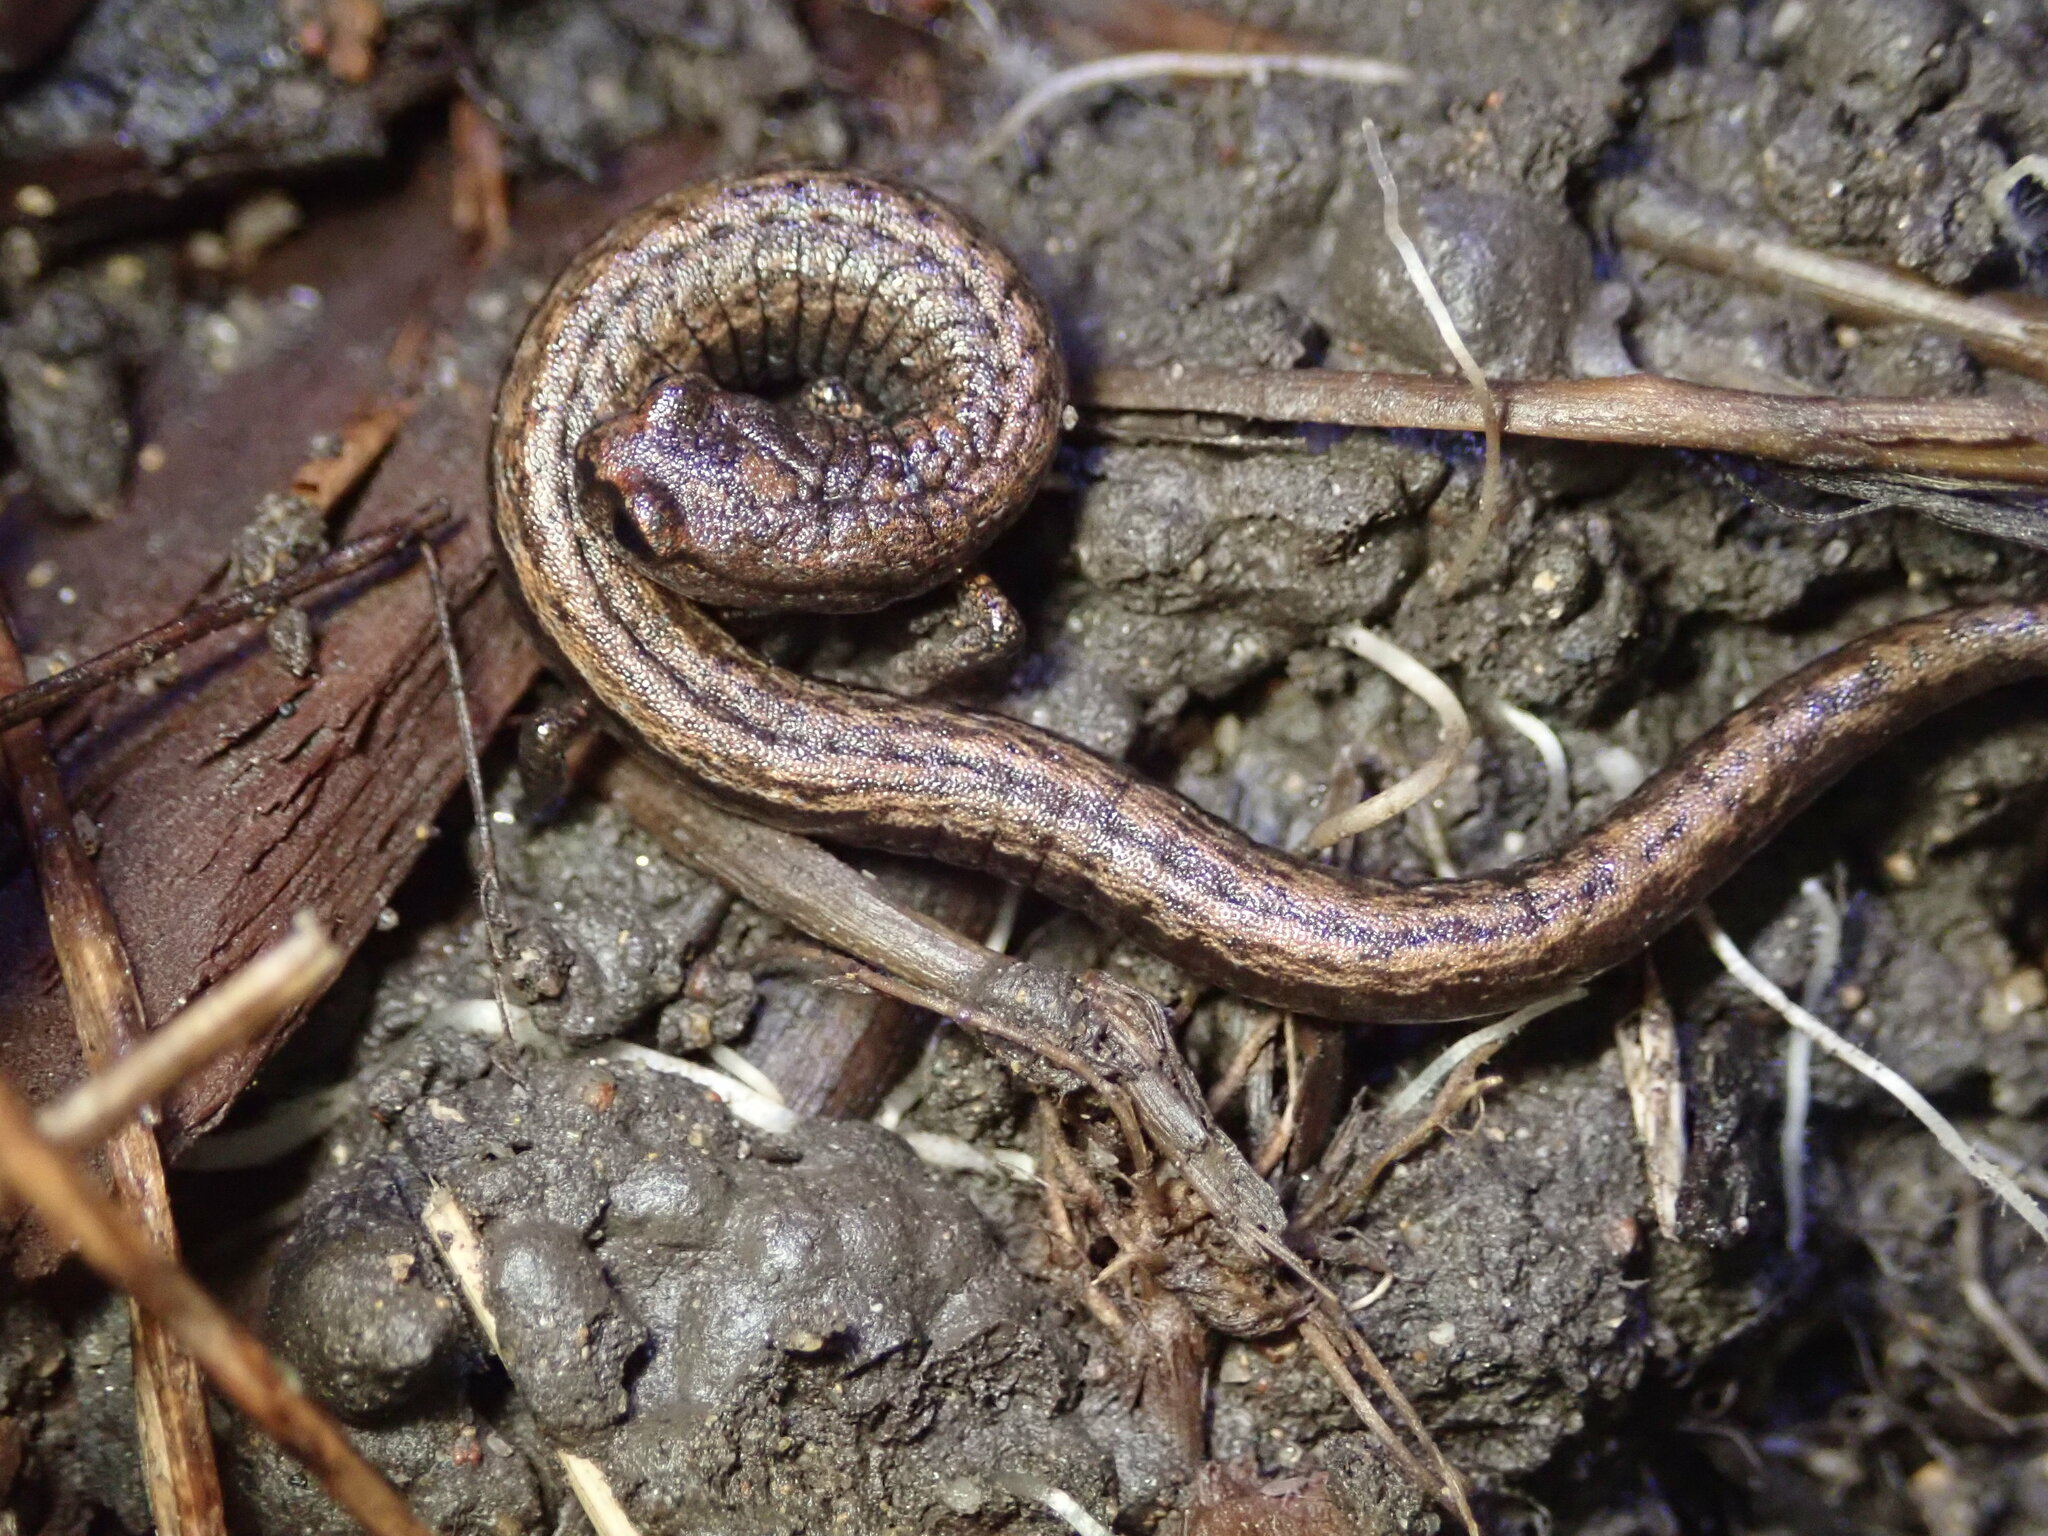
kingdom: Animalia
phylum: Chordata
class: Amphibia
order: Caudata
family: Plethodontidae
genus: Batrachoseps
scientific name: Batrachoseps attenuatus
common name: California slender salamander
